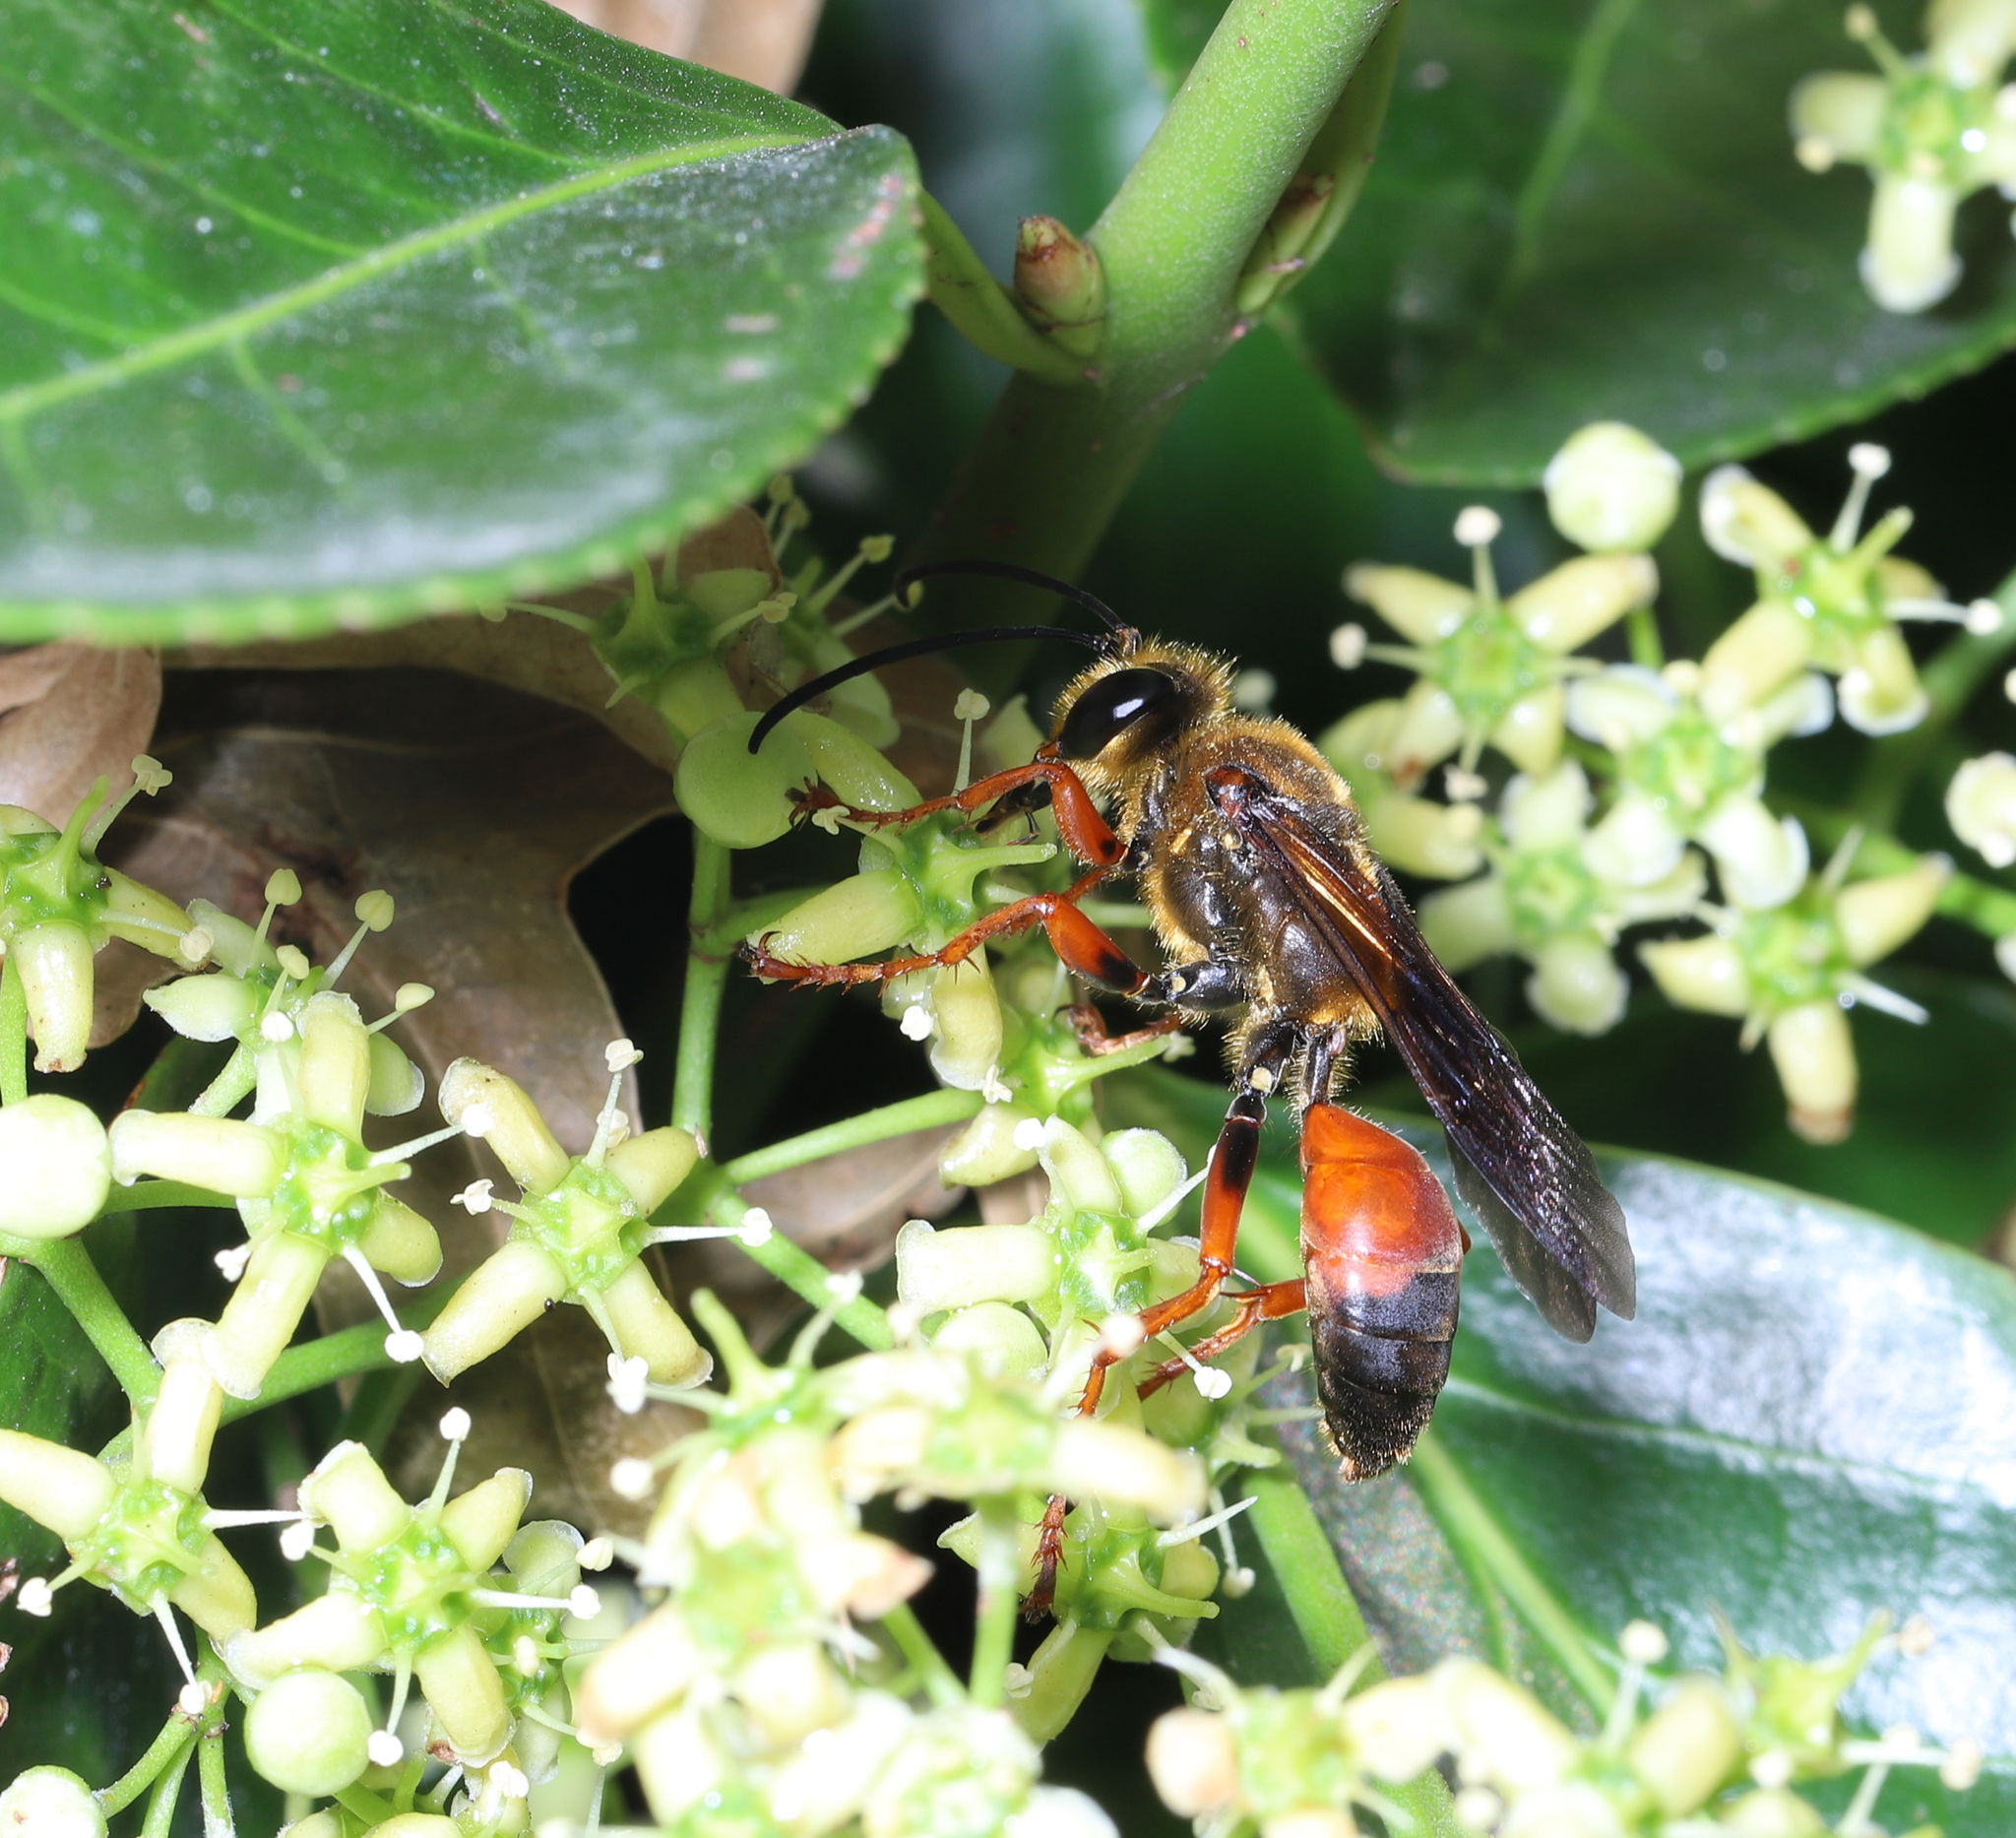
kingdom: Animalia
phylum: Arthropoda
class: Insecta
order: Hymenoptera
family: Sphecidae
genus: Sphex
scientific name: Sphex ichneumoneus
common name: Great golden digger wasp
